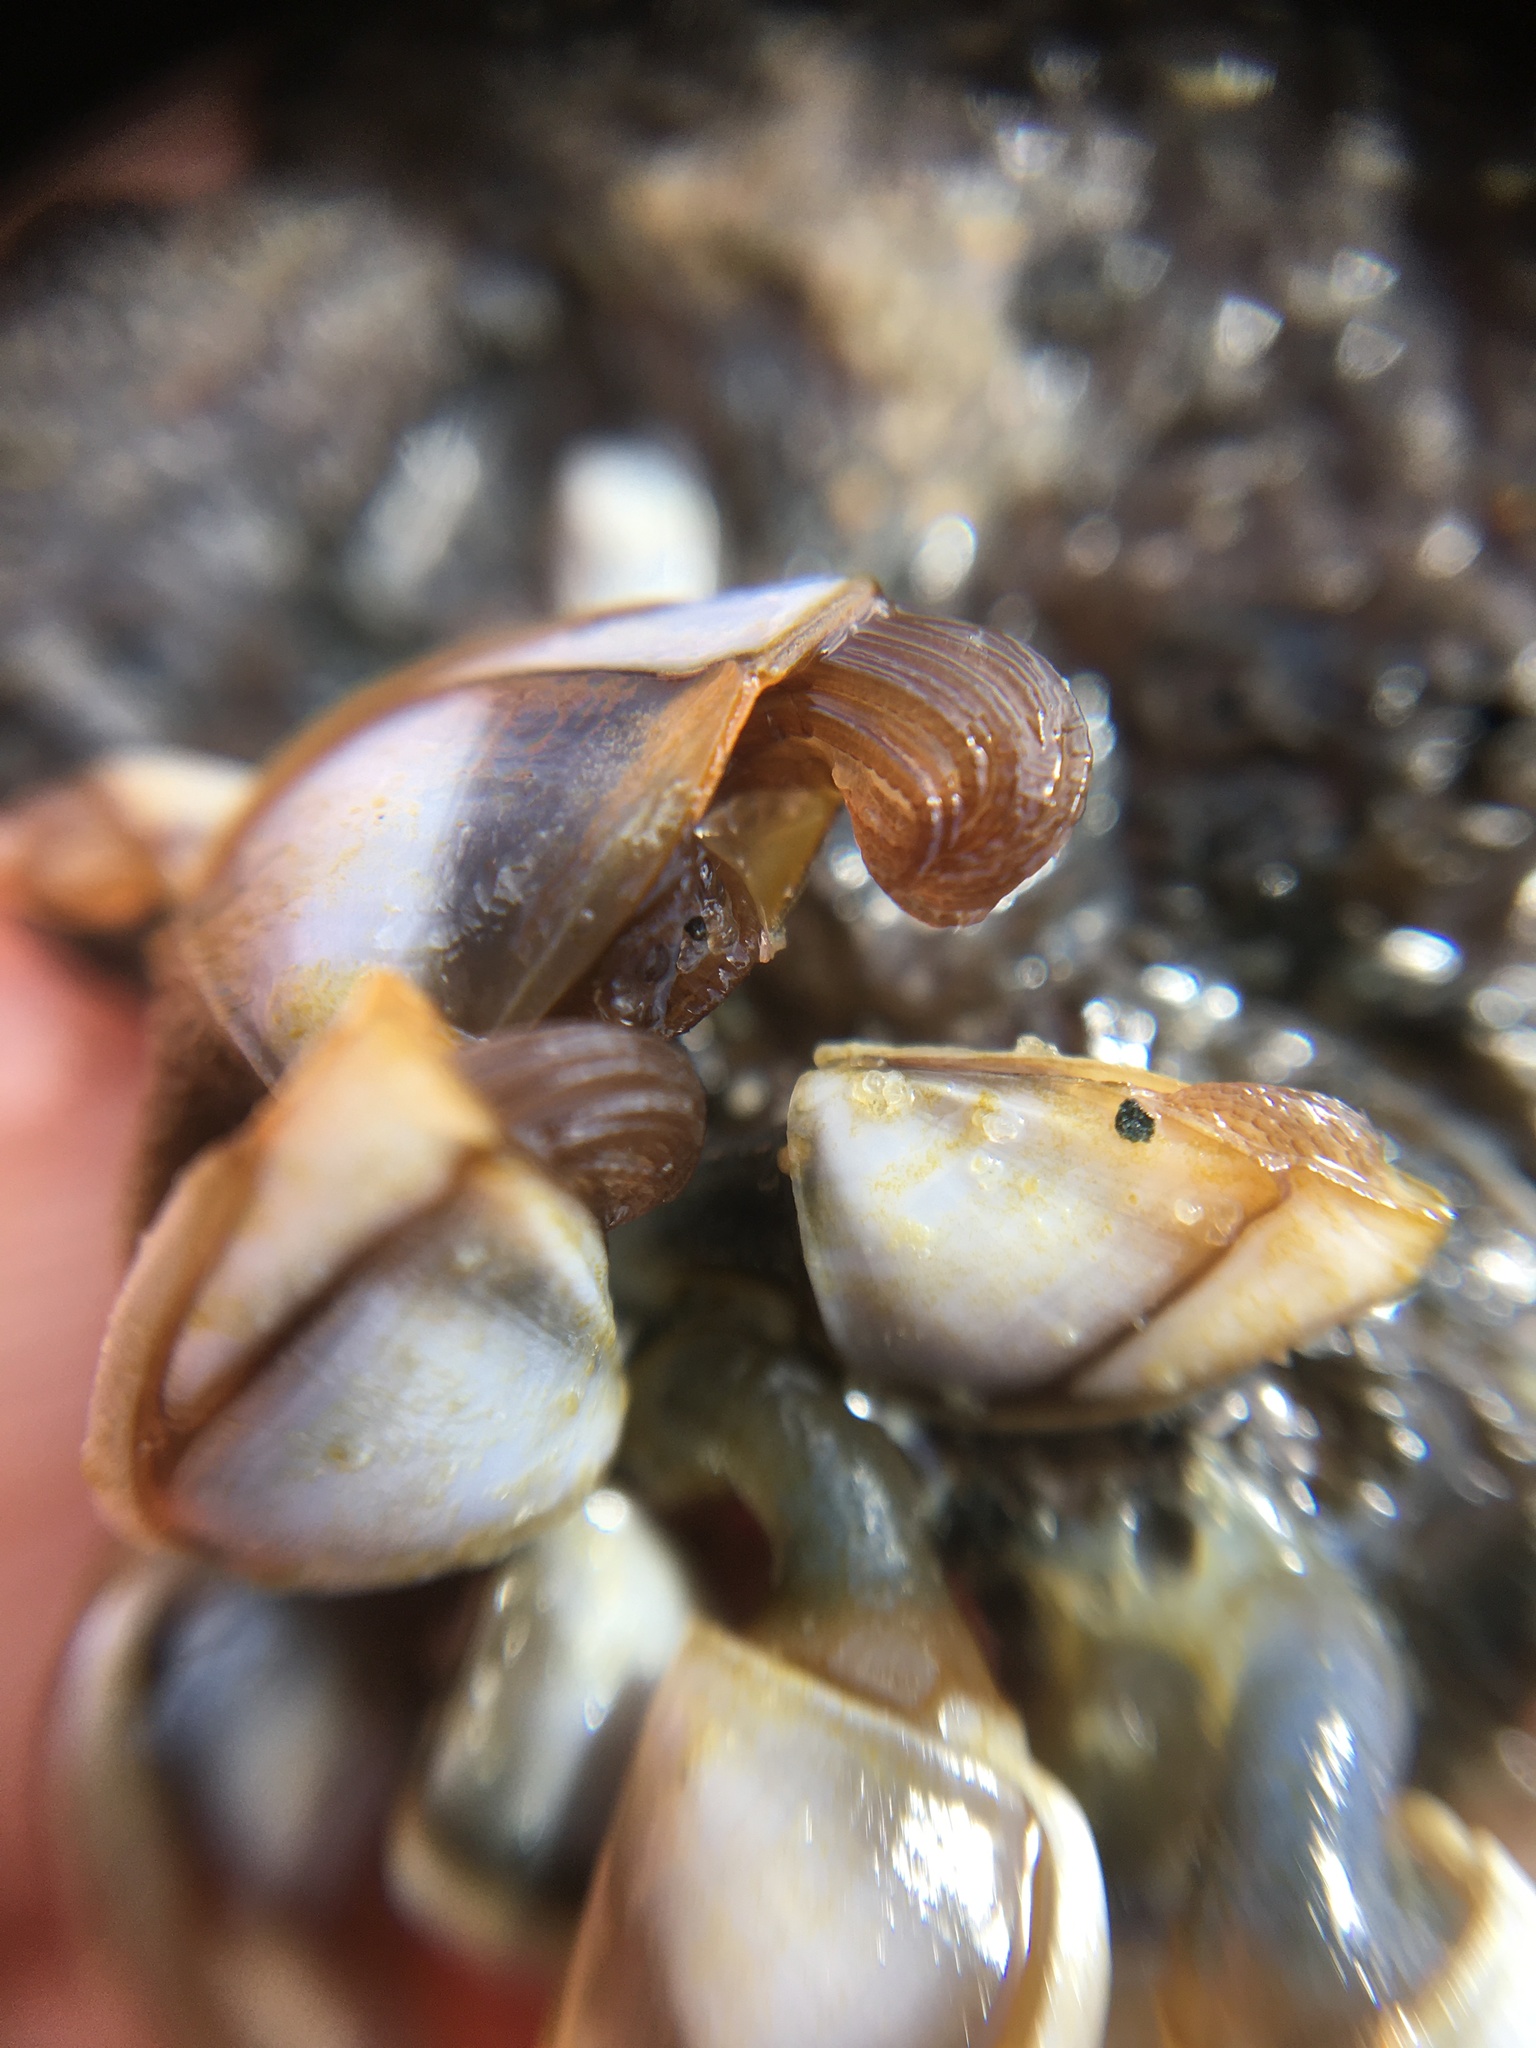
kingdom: Animalia
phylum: Arthropoda
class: Maxillopoda
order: Pedunculata
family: Lepadidae
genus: Lepas
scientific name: Lepas pacifica
